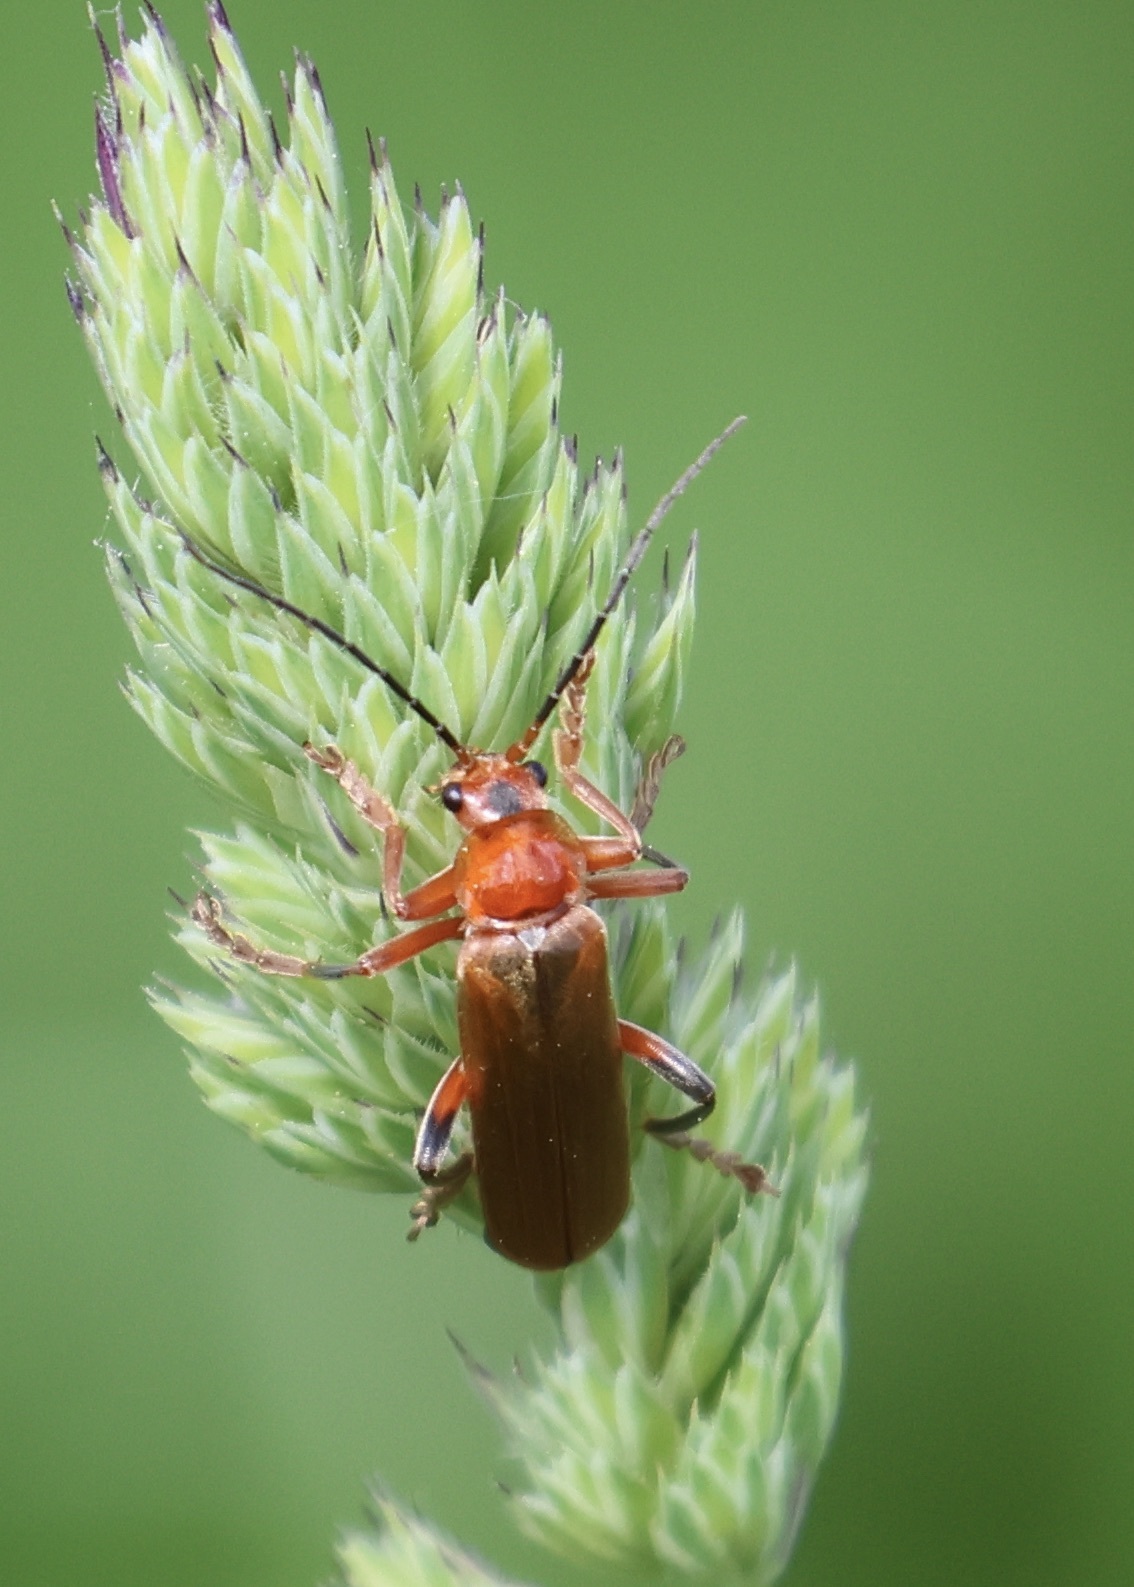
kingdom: Animalia
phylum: Arthropoda
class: Insecta
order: Coleoptera
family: Cantharidae
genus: Cantharis
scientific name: Cantharis livida
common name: Livid soldier beetle
